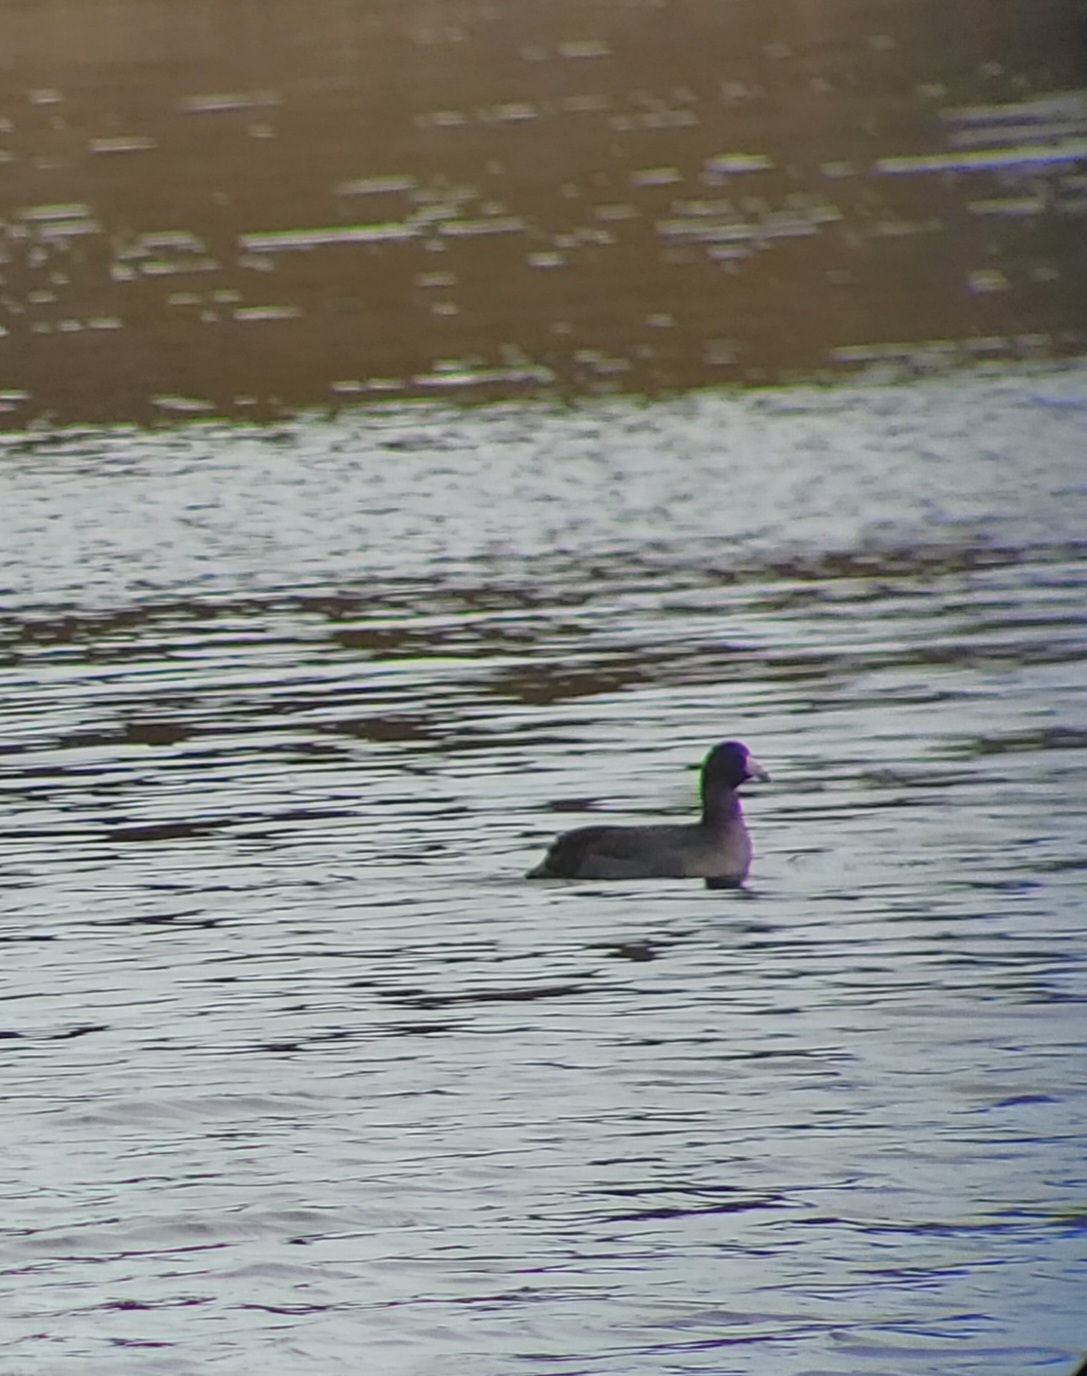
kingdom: Animalia
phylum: Chordata
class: Aves
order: Gruiformes
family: Rallidae
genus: Fulica
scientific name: Fulica americana
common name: American coot
